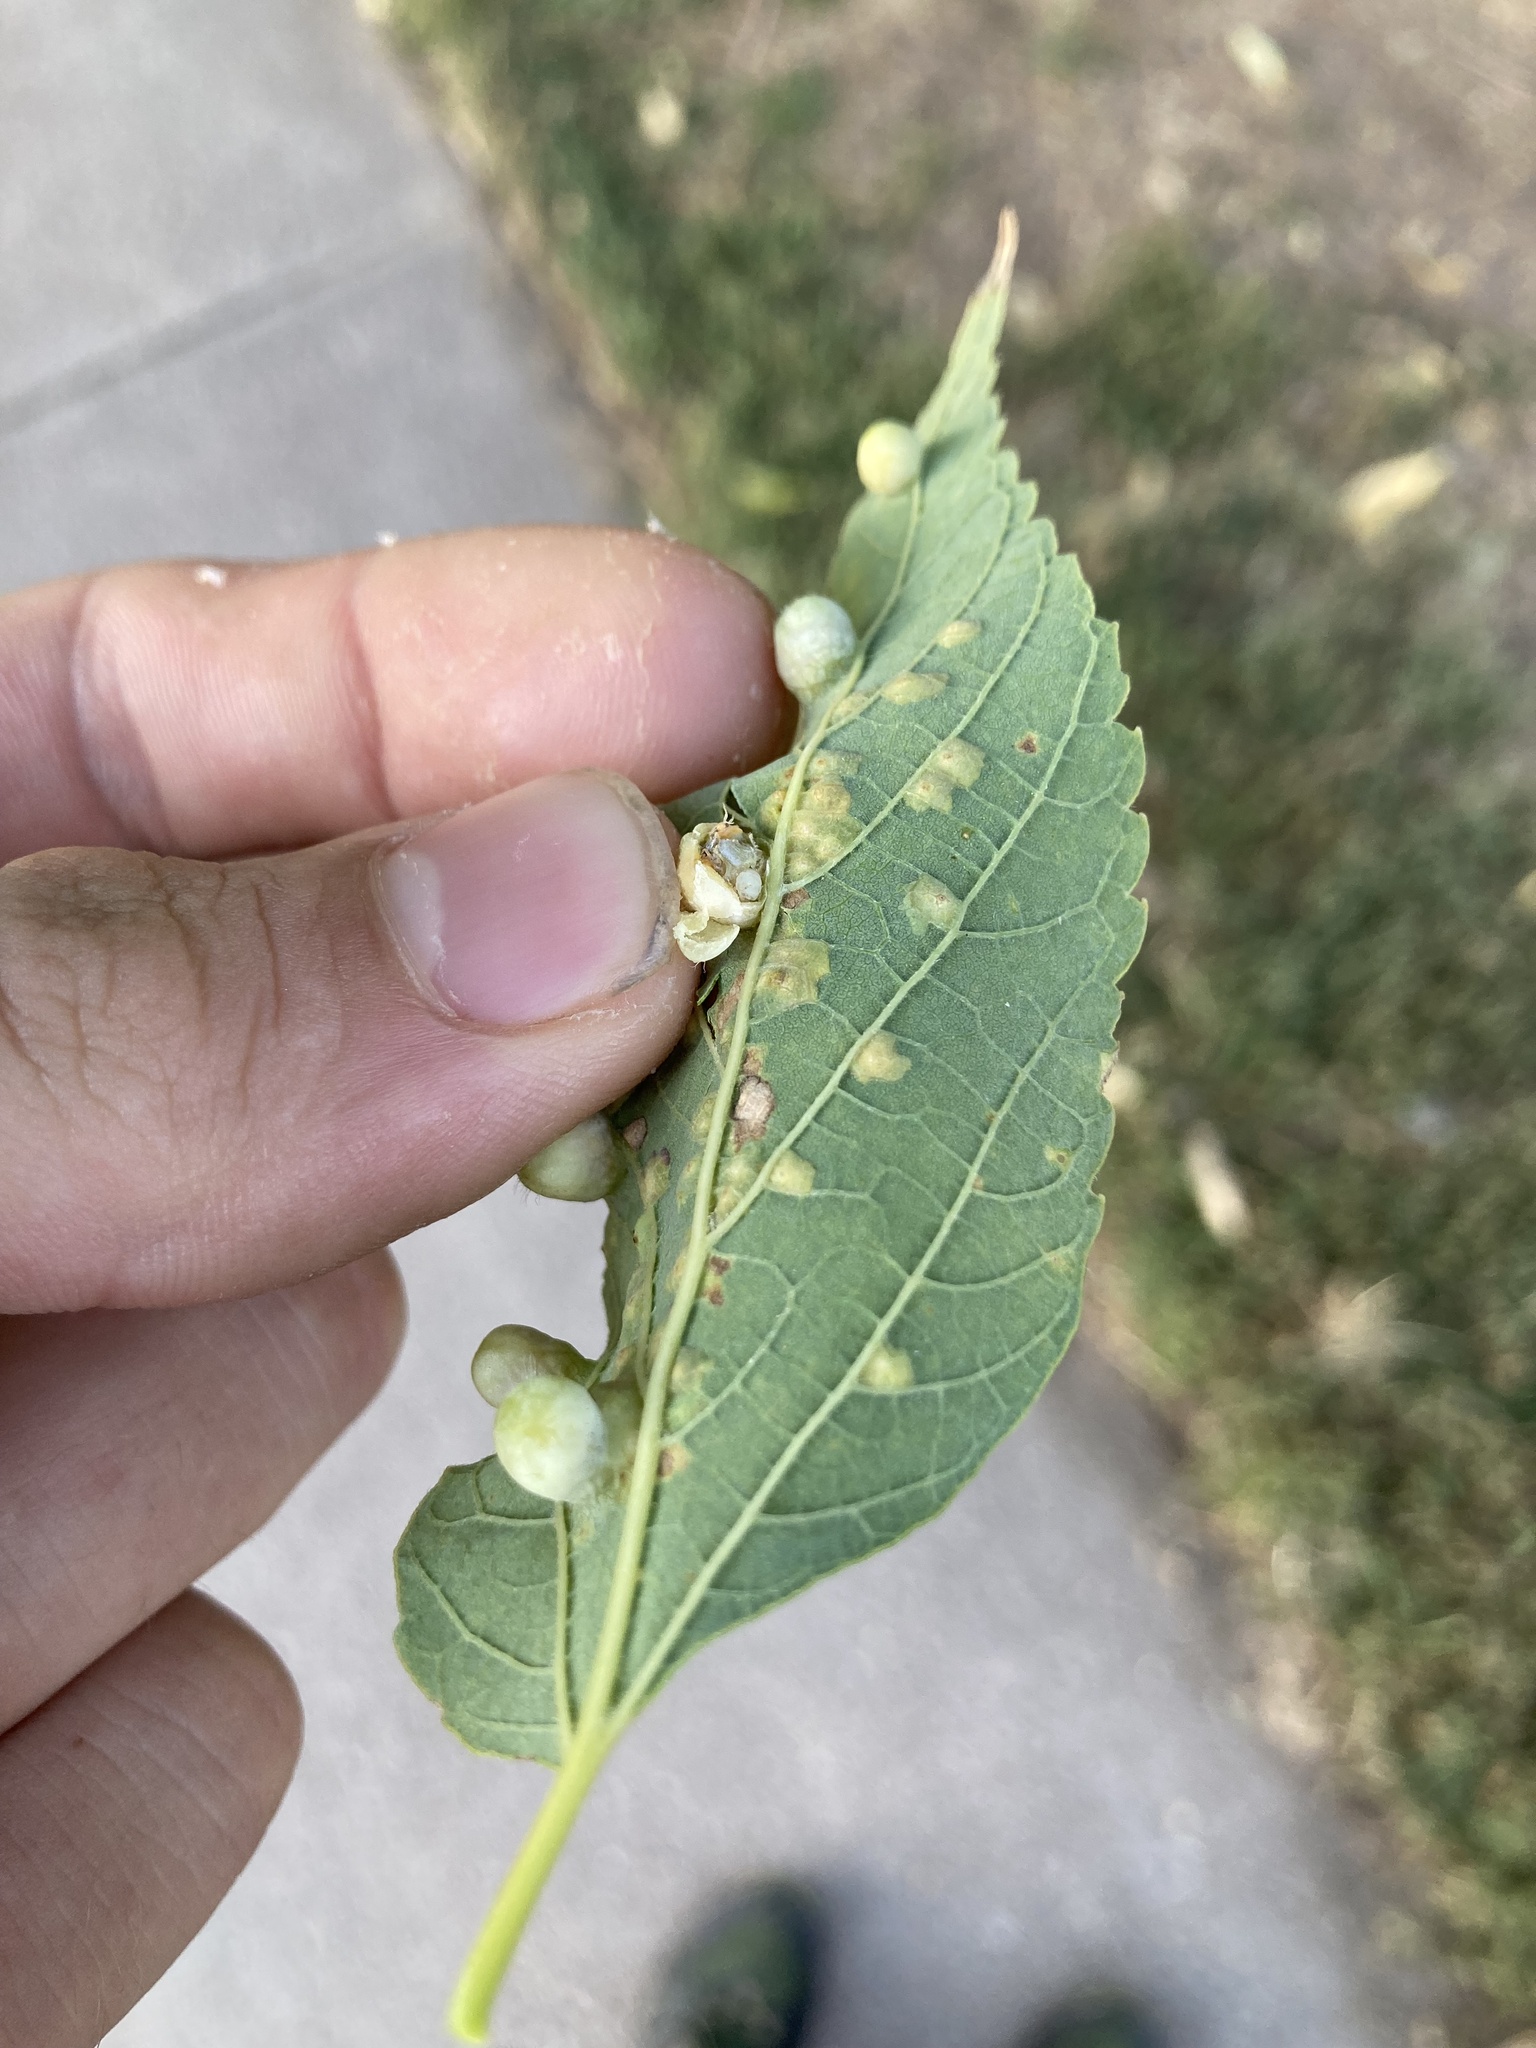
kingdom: Animalia
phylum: Arthropoda
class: Insecta
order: Hemiptera
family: Aphalaridae
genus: Pachypsylla
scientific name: Pachypsylla celtidismamma
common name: Hackberry nipplegall psyllid
